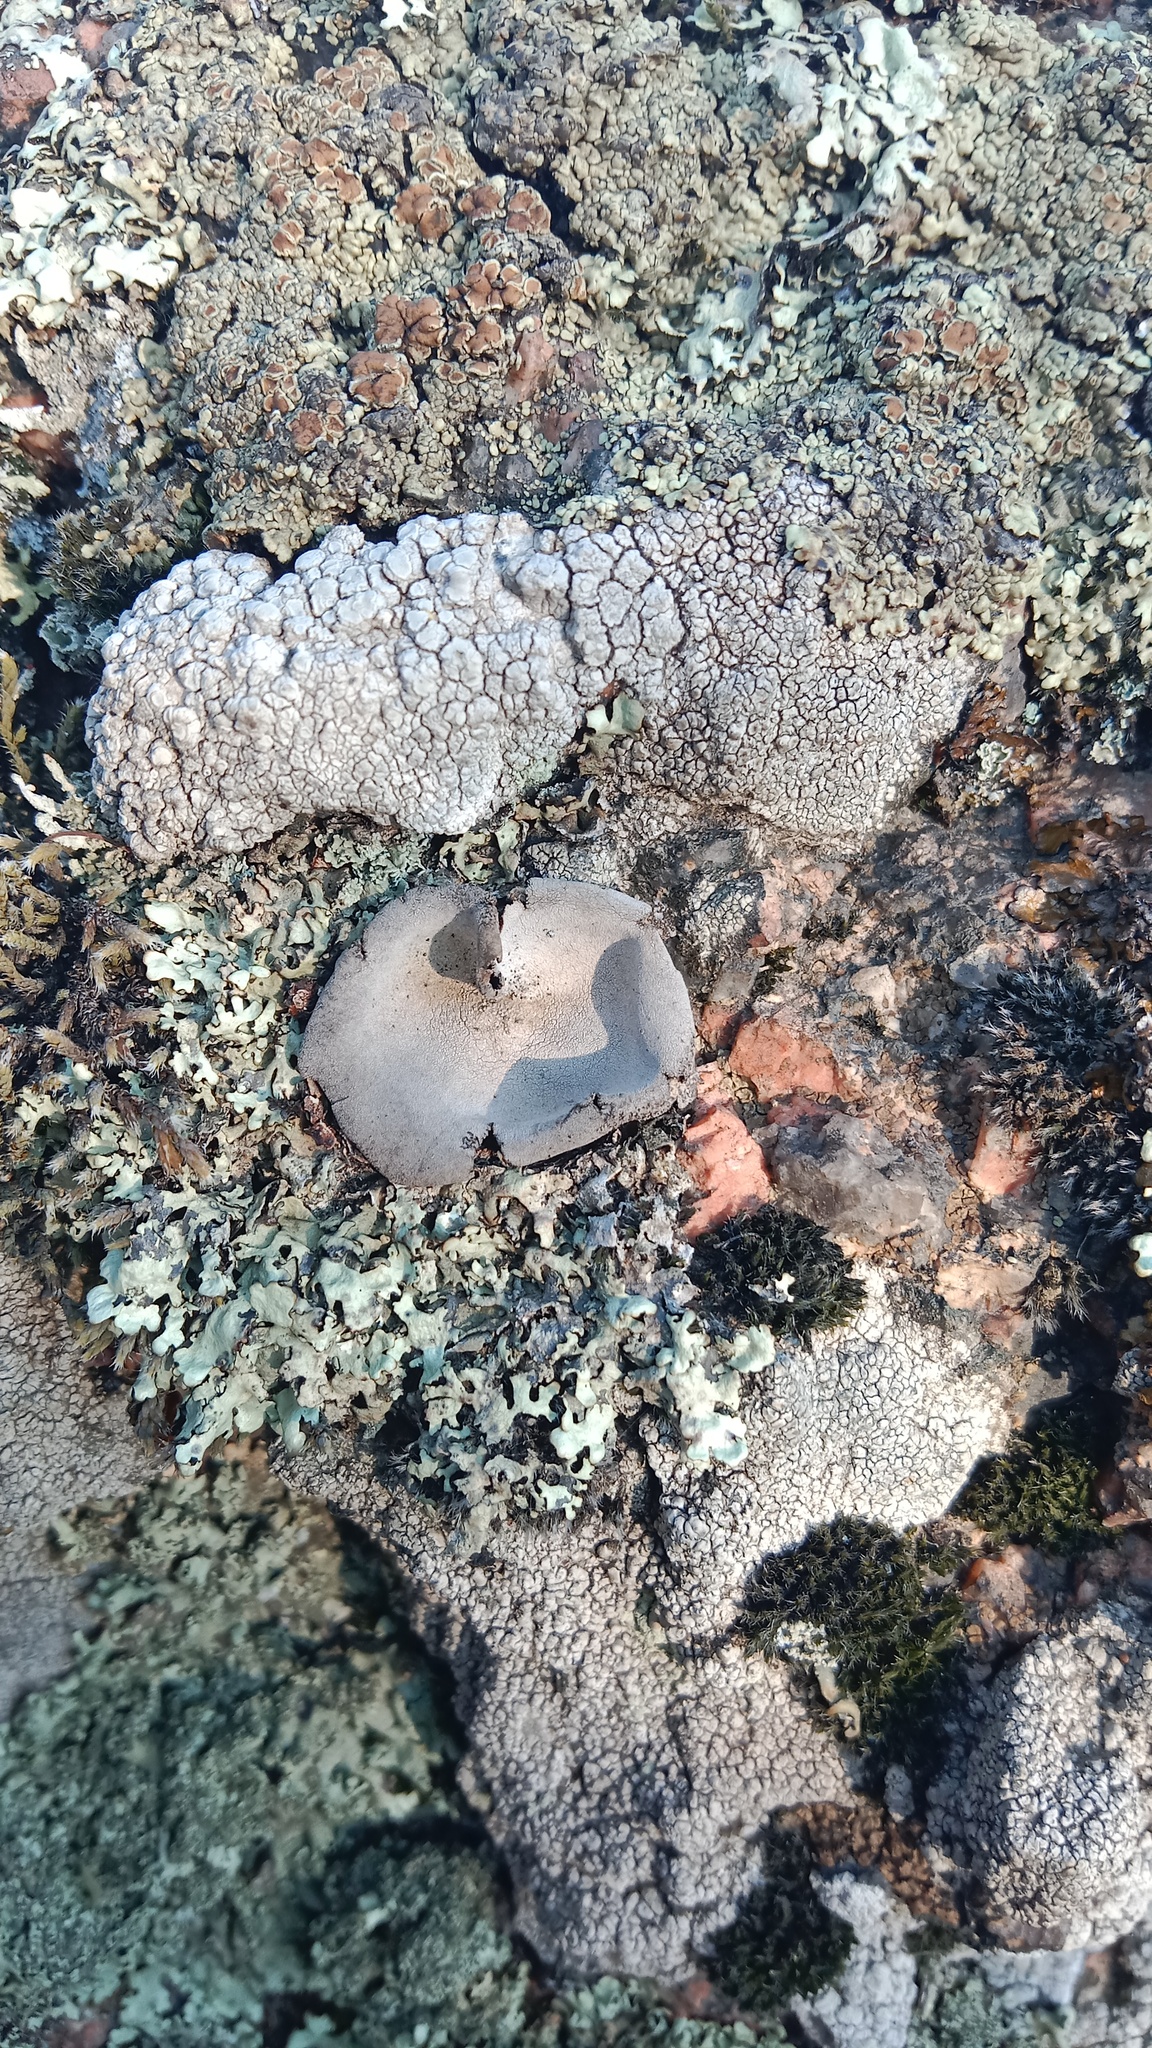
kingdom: Fungi
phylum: Ascomycota
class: Lecanoromycetes
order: Umbilicariales
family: Umbilicariaceae
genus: Umbilicaria
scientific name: Umbilicaria hirsuta
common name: Granulating rocktripe lichen
